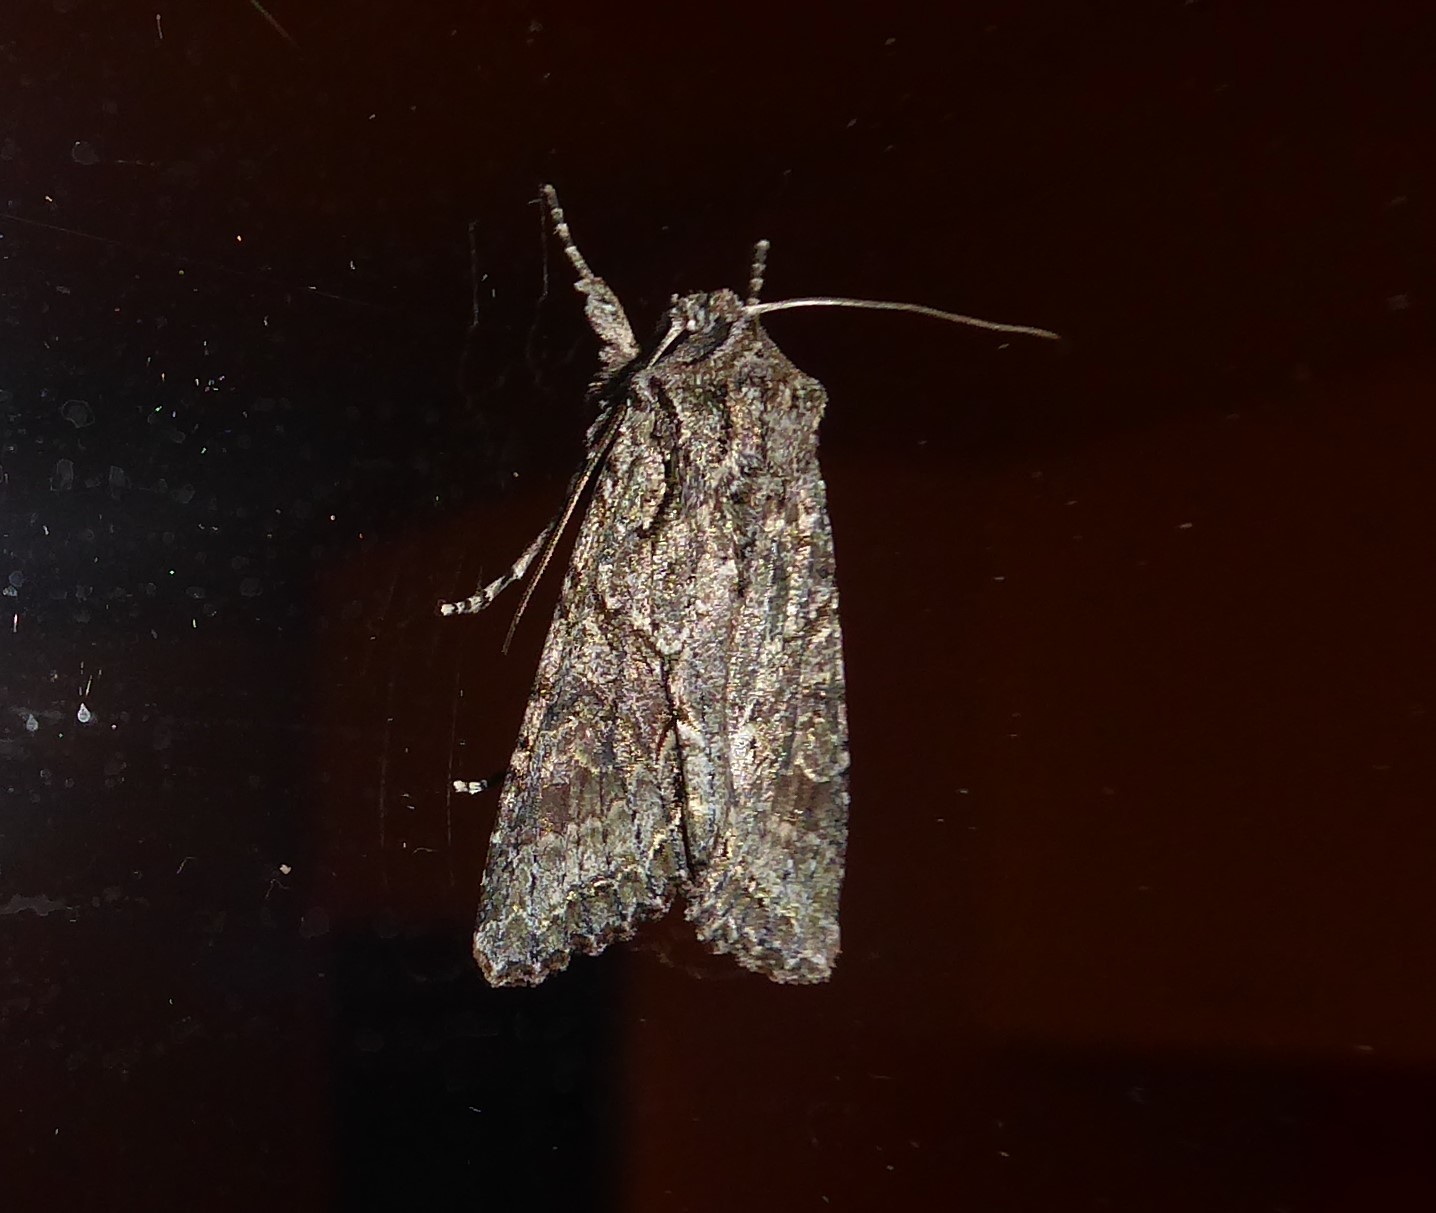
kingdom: Animalia
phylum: Arthropoda
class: Insecta
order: Lepidoptera
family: Noctuidae
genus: Ichneutica
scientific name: Ichneutica mutans
